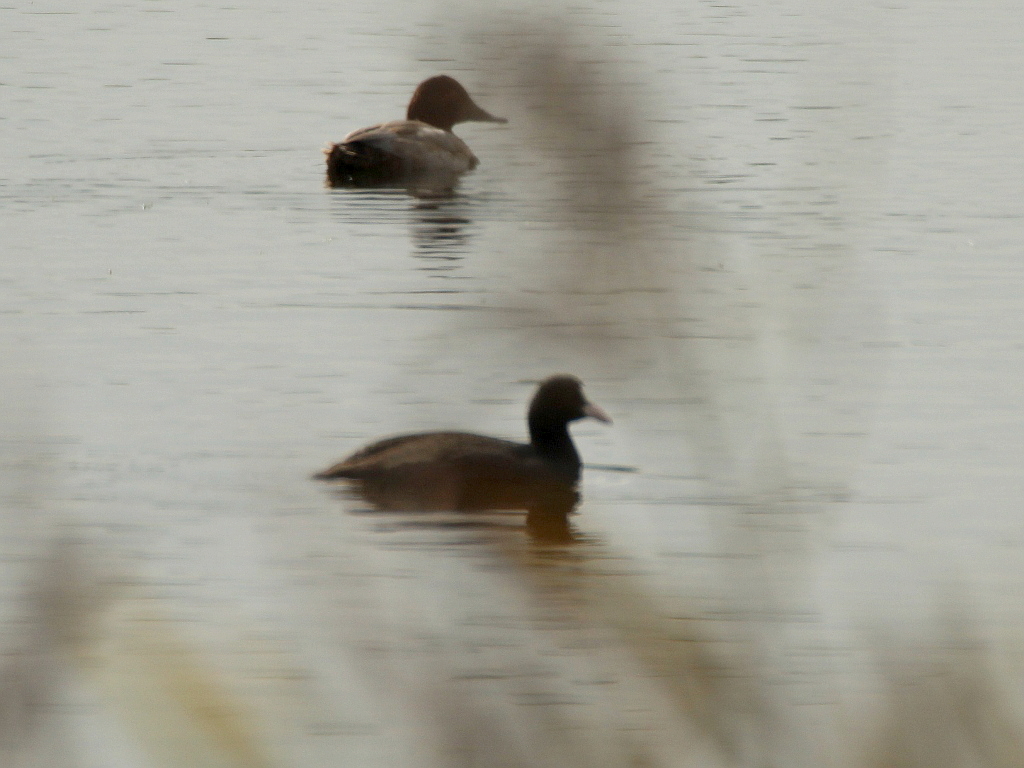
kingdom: Animalia
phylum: Chordata
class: Aves
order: Gruiformes
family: Rallidae
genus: Fulica
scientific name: Fulica atra
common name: Eurasian coot
